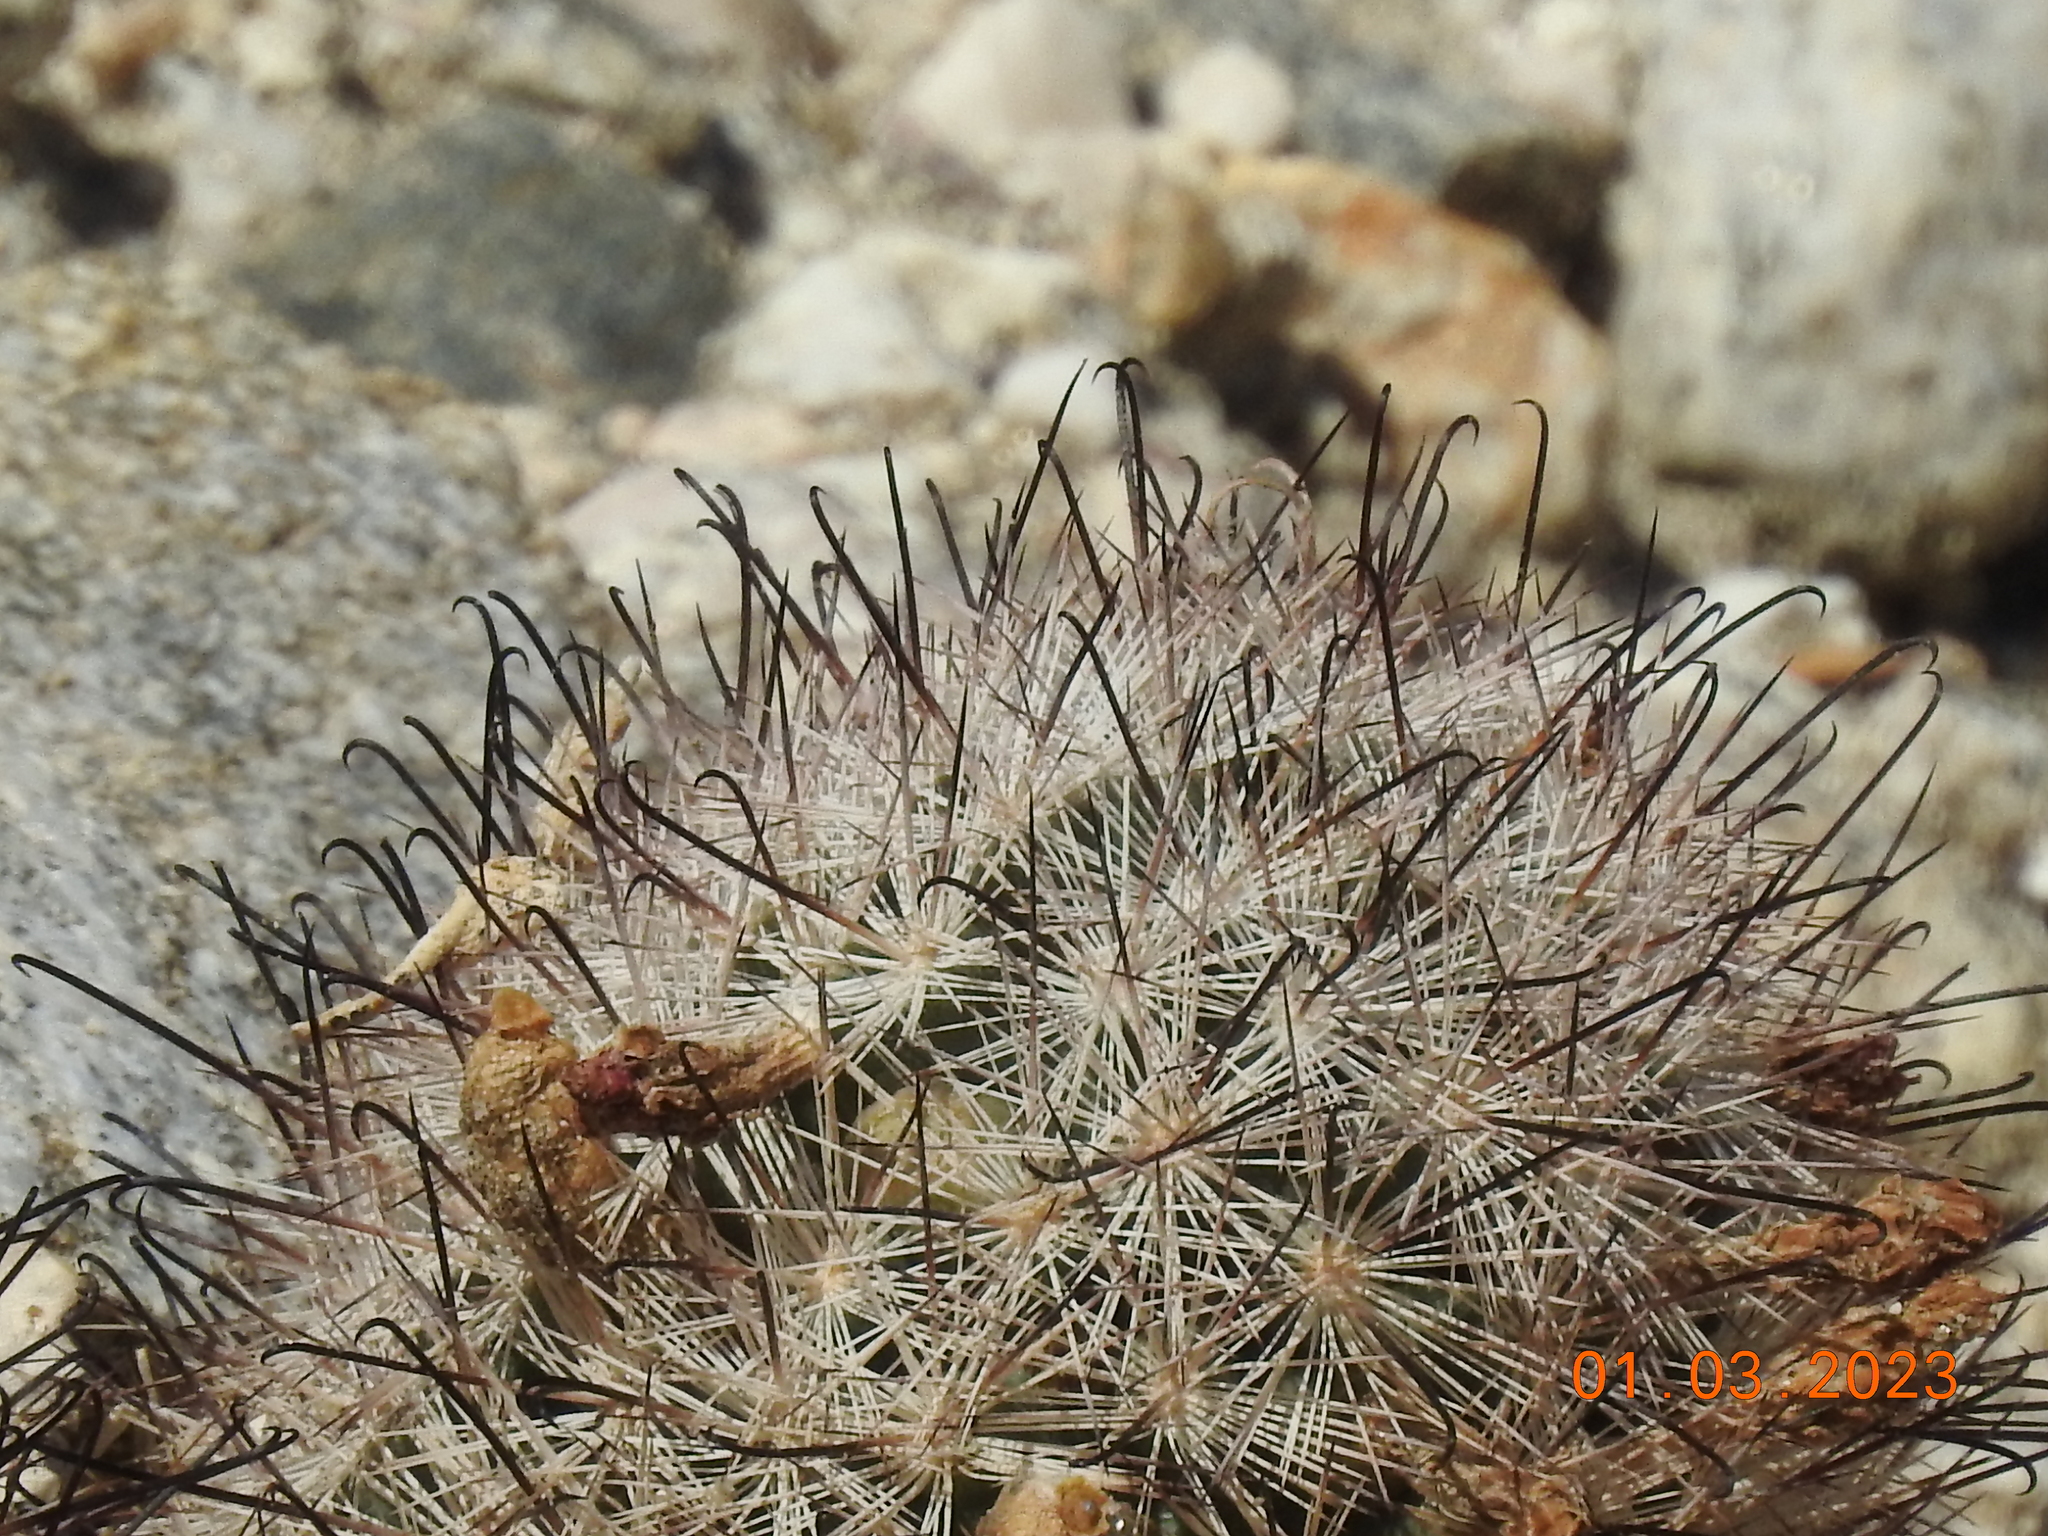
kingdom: Plantae
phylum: Tracheophyta
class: Magnoliopsida
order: Caryophyllales
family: Cactaceae
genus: Cochemiea
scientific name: Cochemiea tetrancistra
